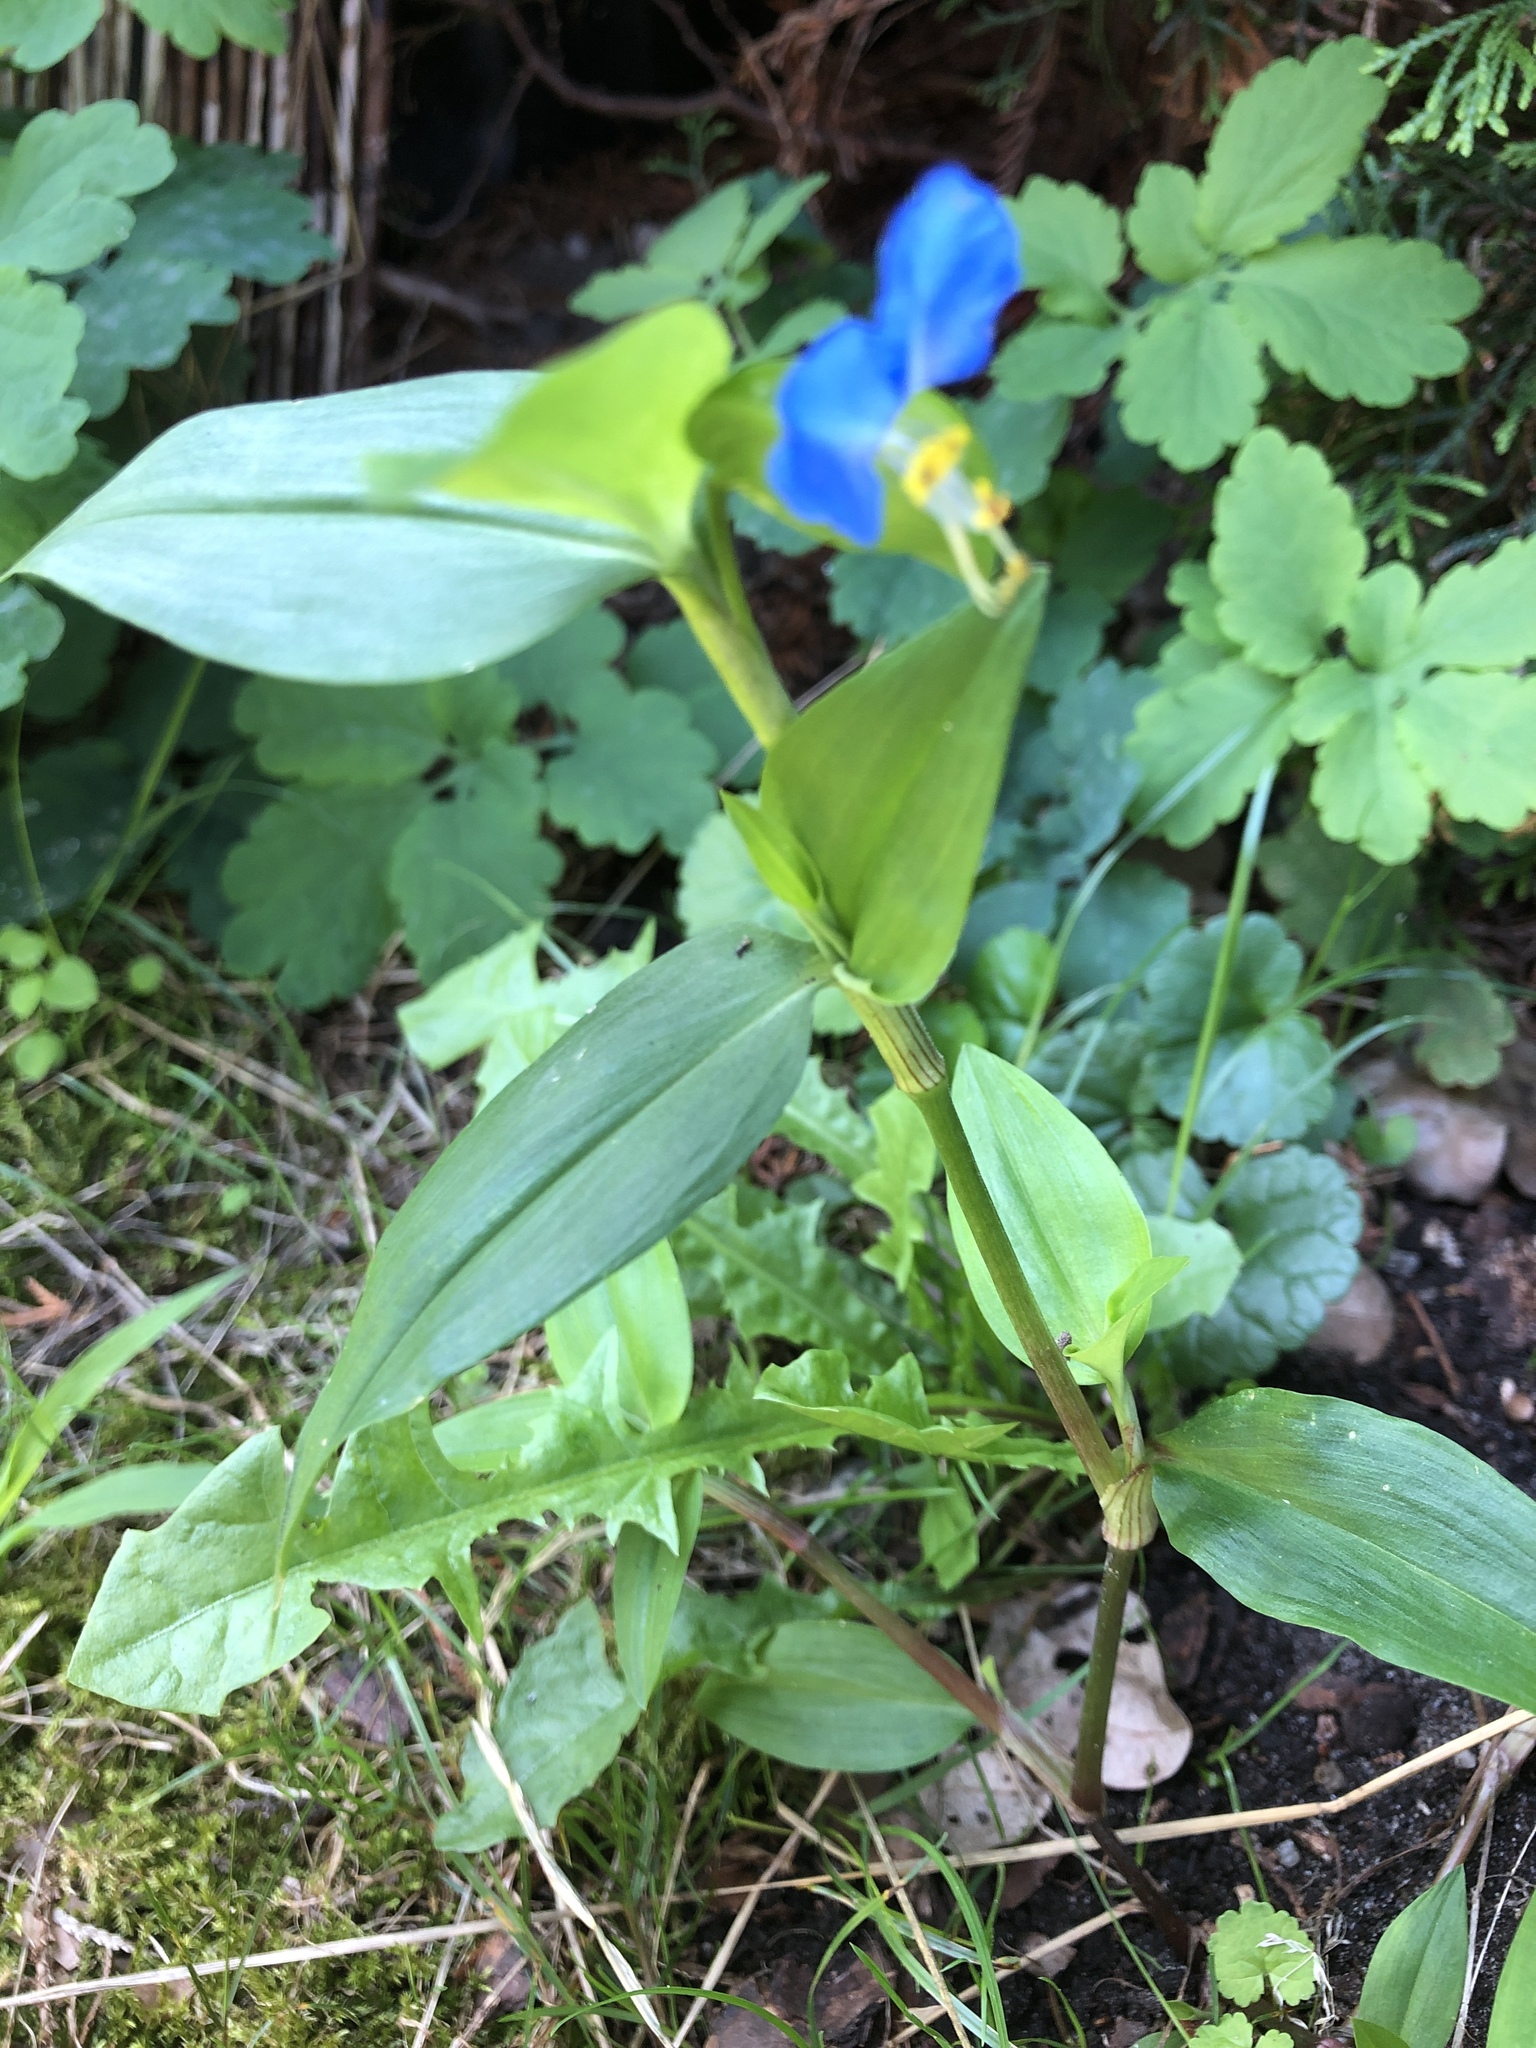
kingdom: Plantae
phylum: Tracheophyta
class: Liliopsida
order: Commelinales
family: Commelinaceae
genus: Commelina
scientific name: Commelina communis
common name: Asiatic dayflower
